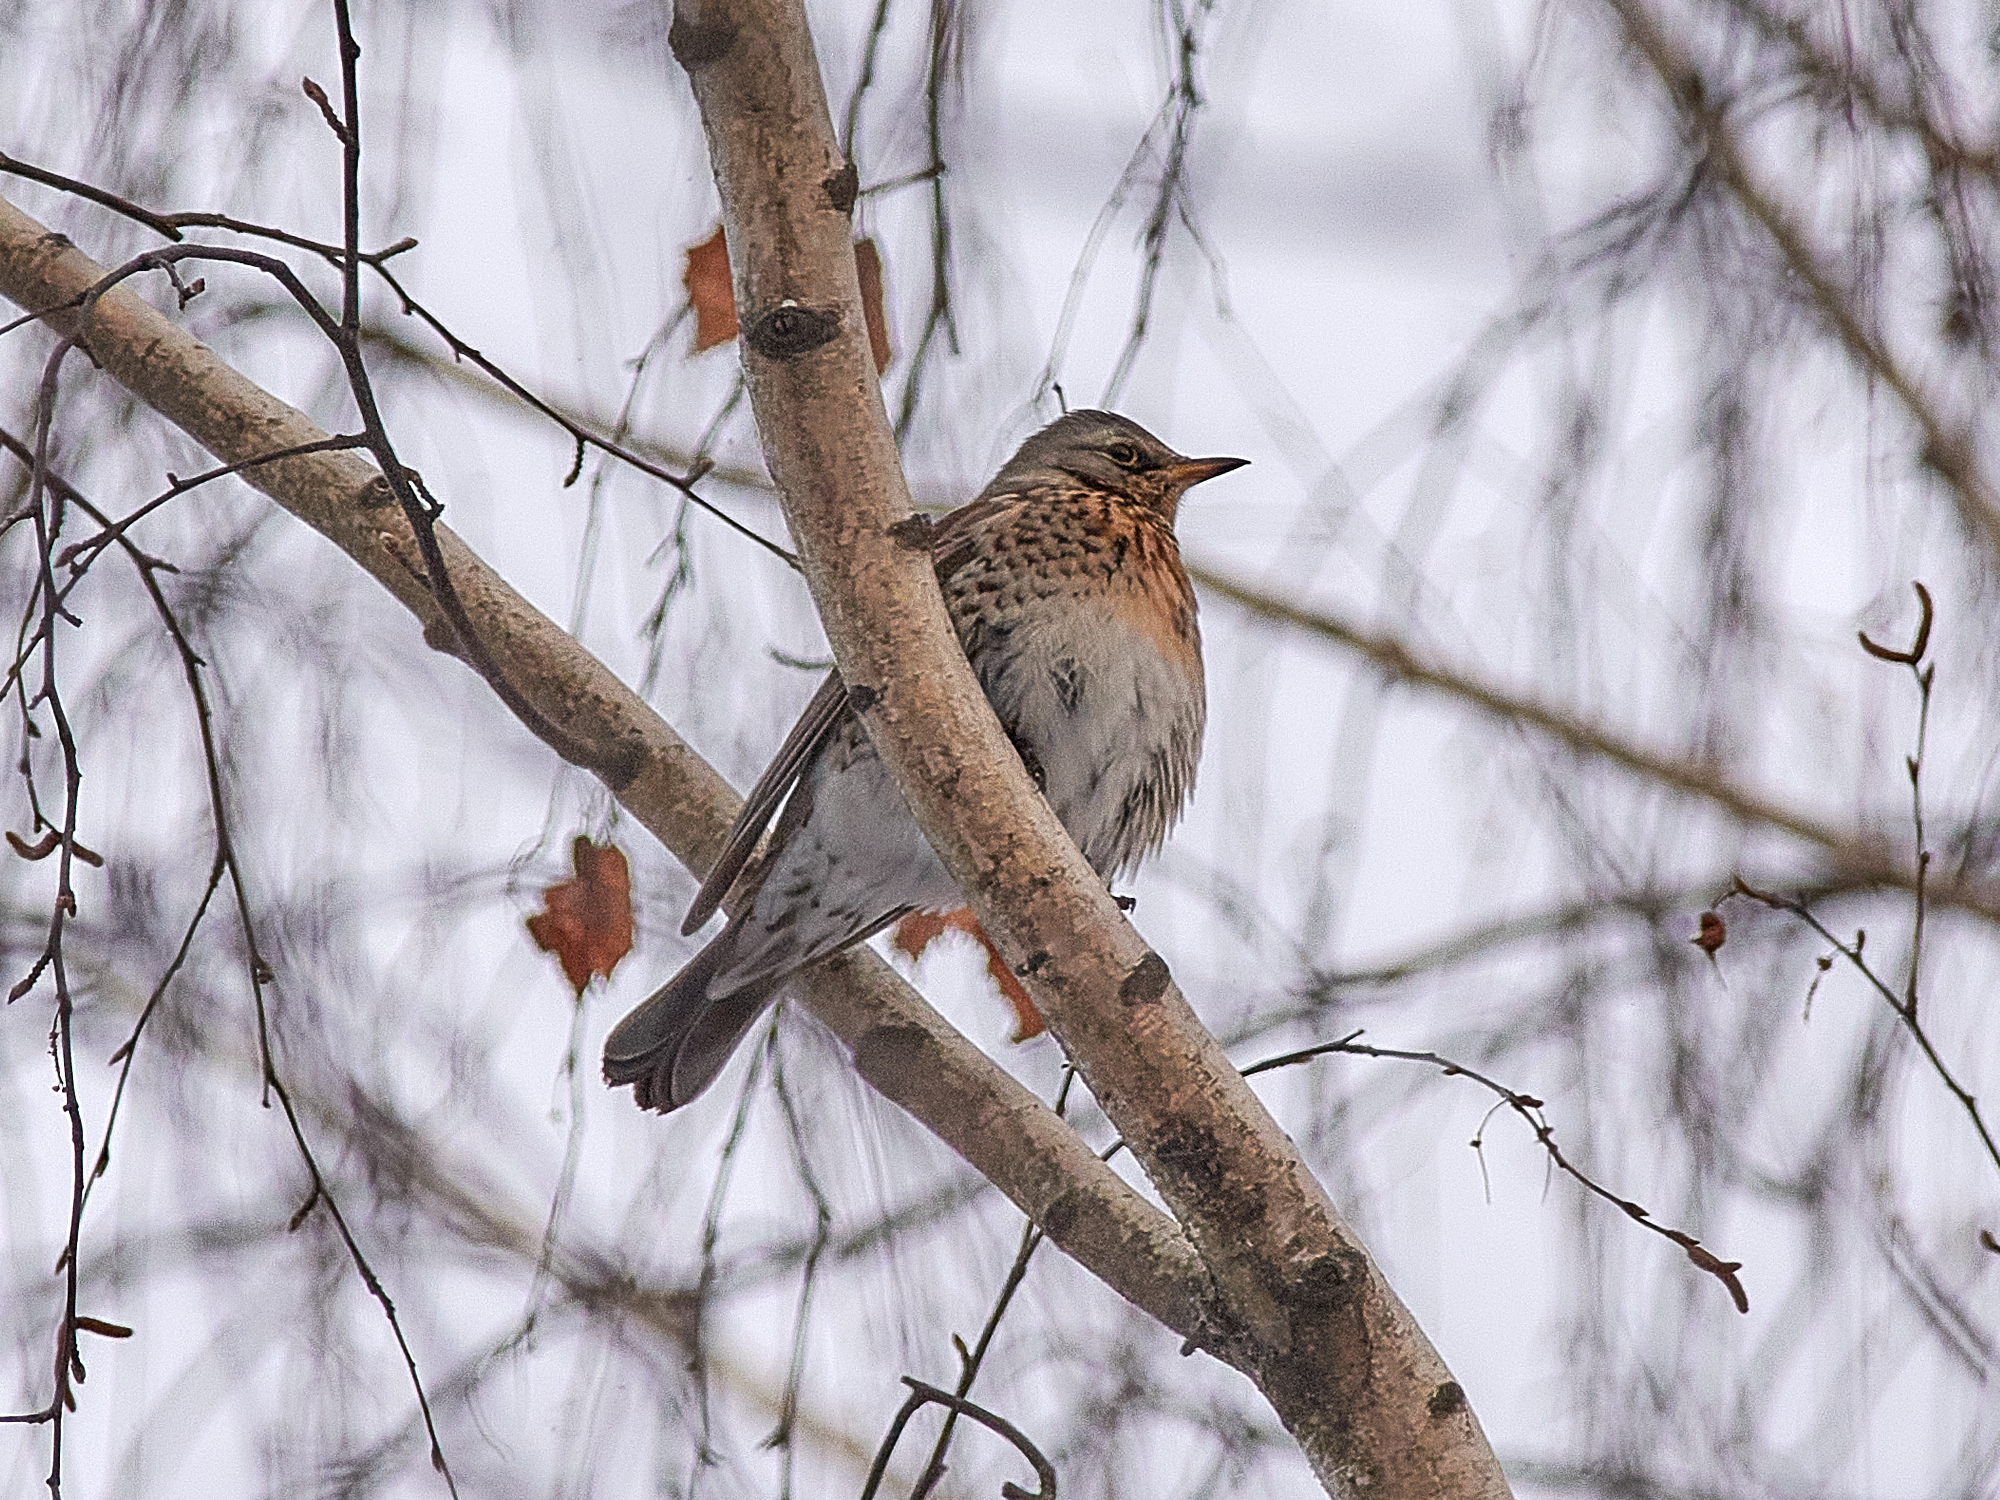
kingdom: Animalia
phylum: Chordata
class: Aves
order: Passeriformes
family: Turdidae
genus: Turdus
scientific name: Turdus pilaris
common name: Fieldfare
